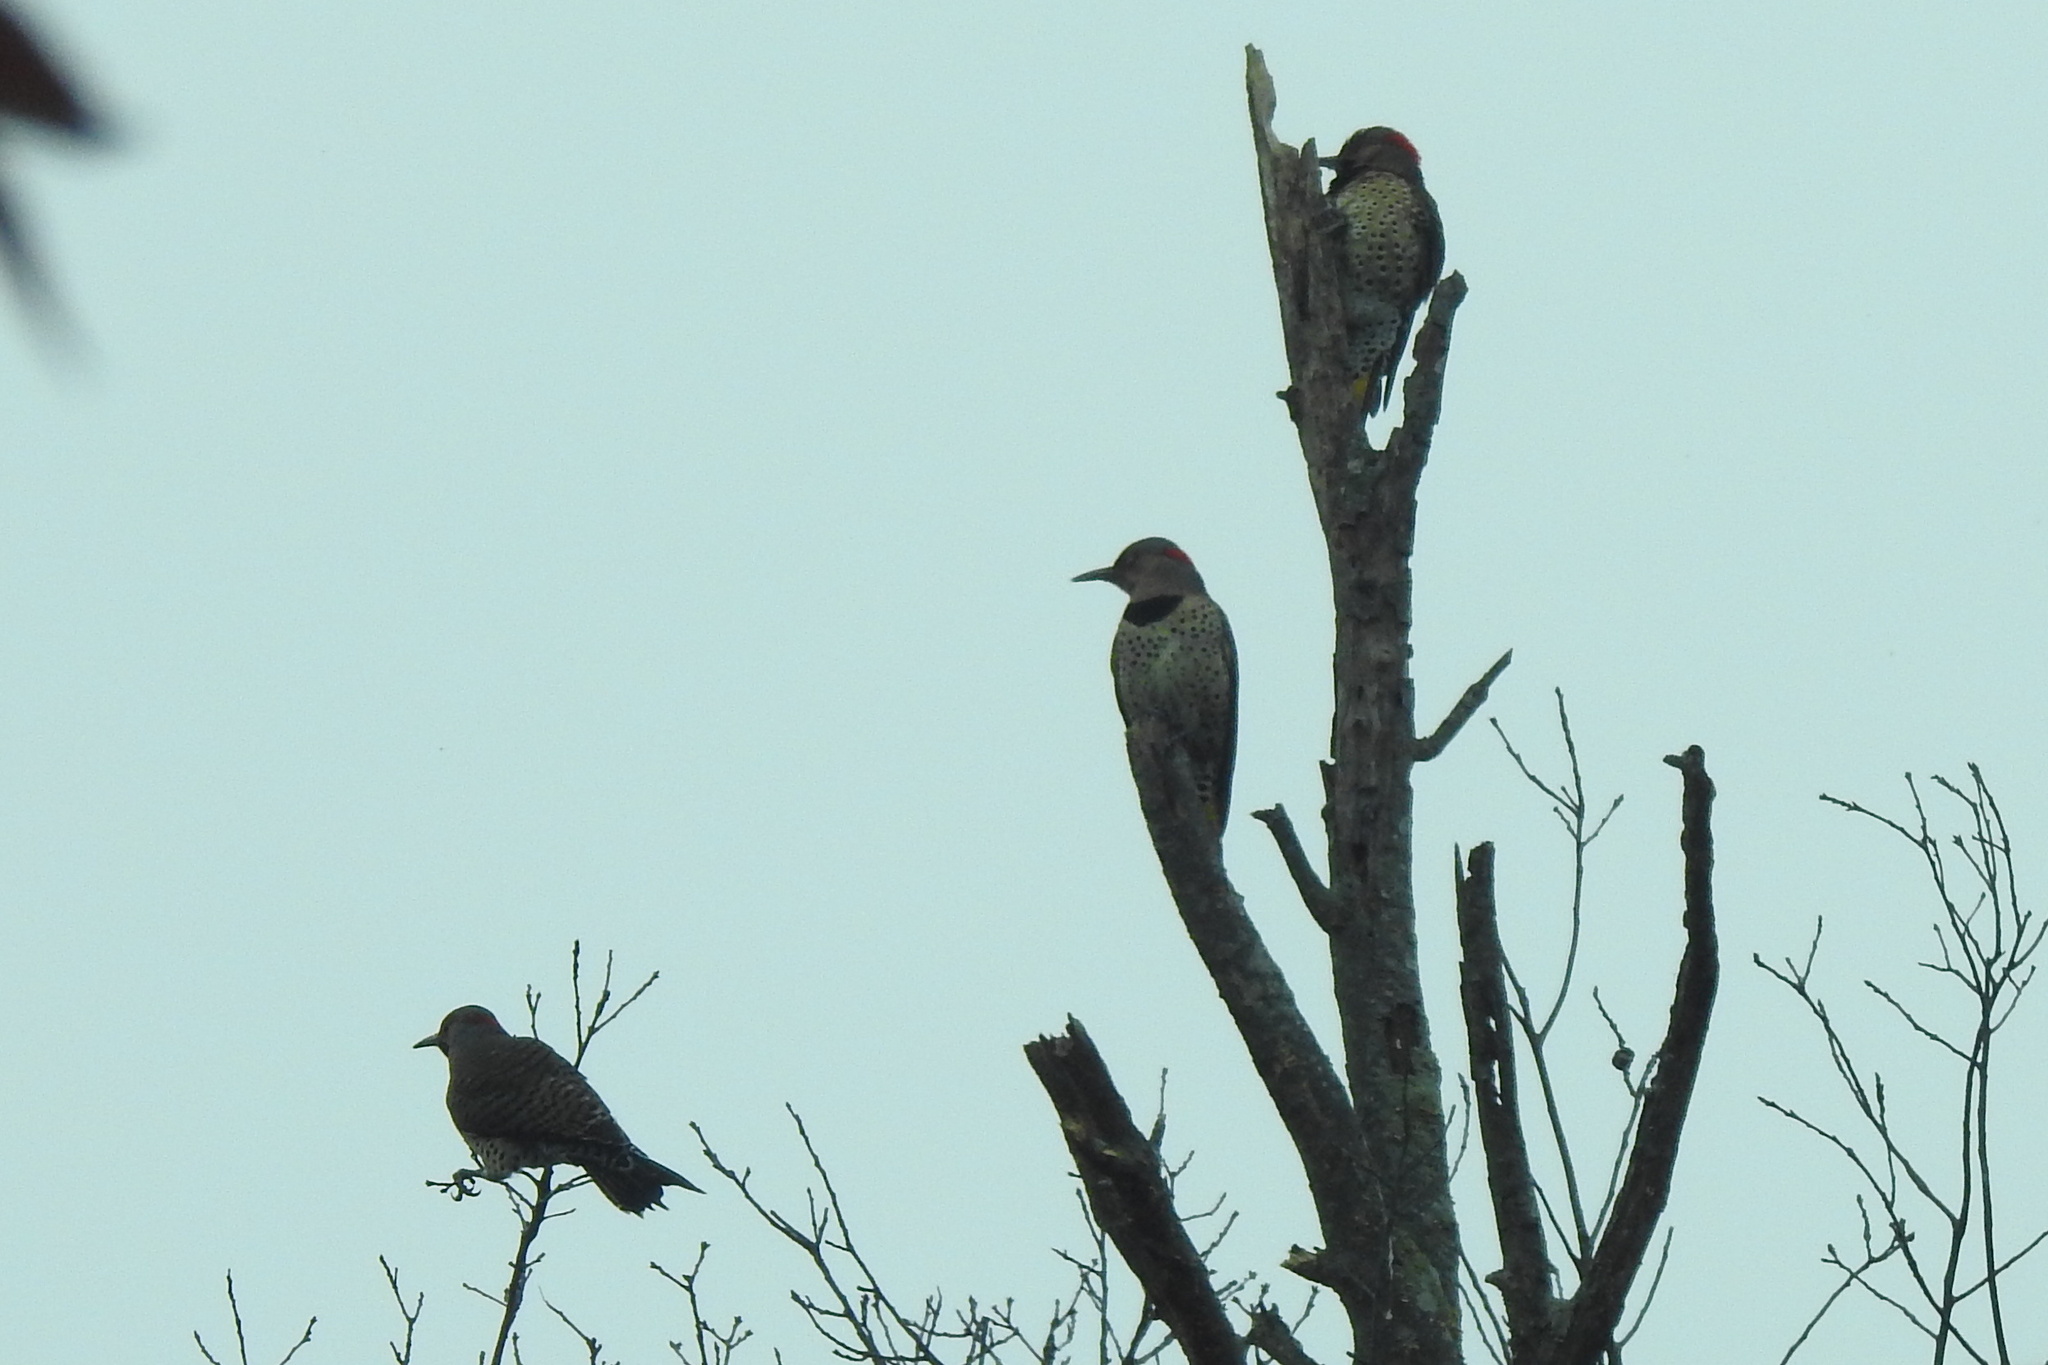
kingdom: Animalia
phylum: Chordata
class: Aves
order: Piciformes
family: Picidae
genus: Colaptes
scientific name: Colaptes auratus
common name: Northern flicker
